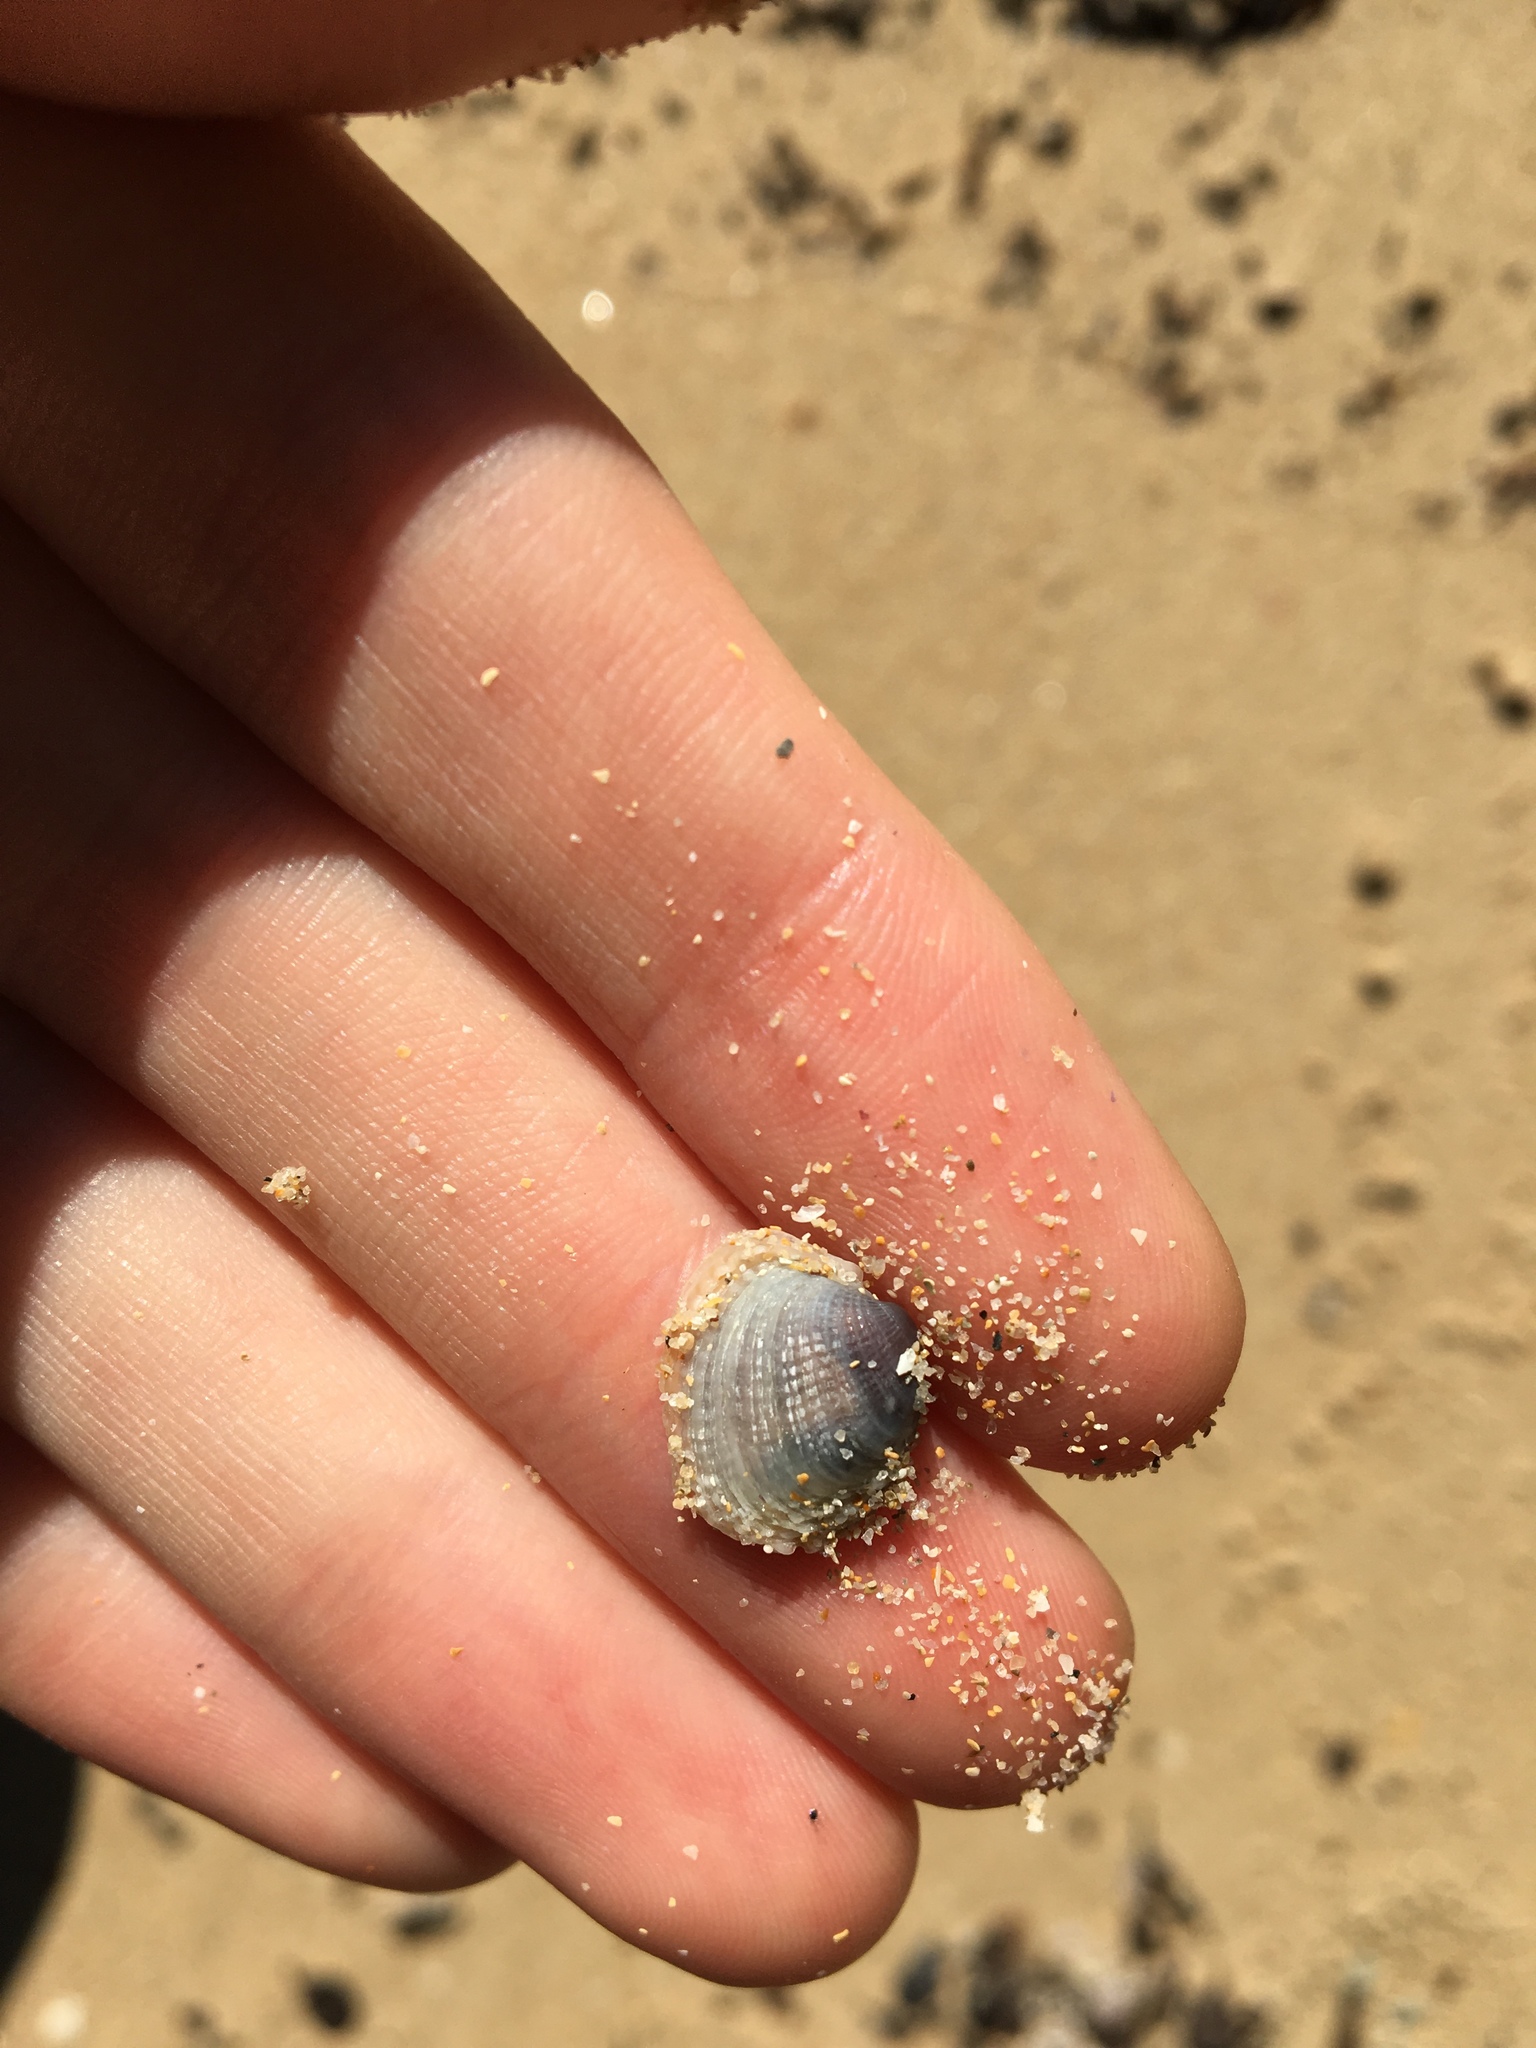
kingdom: Animalia
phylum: Mollusca
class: Bivalvia
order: Venerida
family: Veneridae
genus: Irus
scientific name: Irus cumingii
